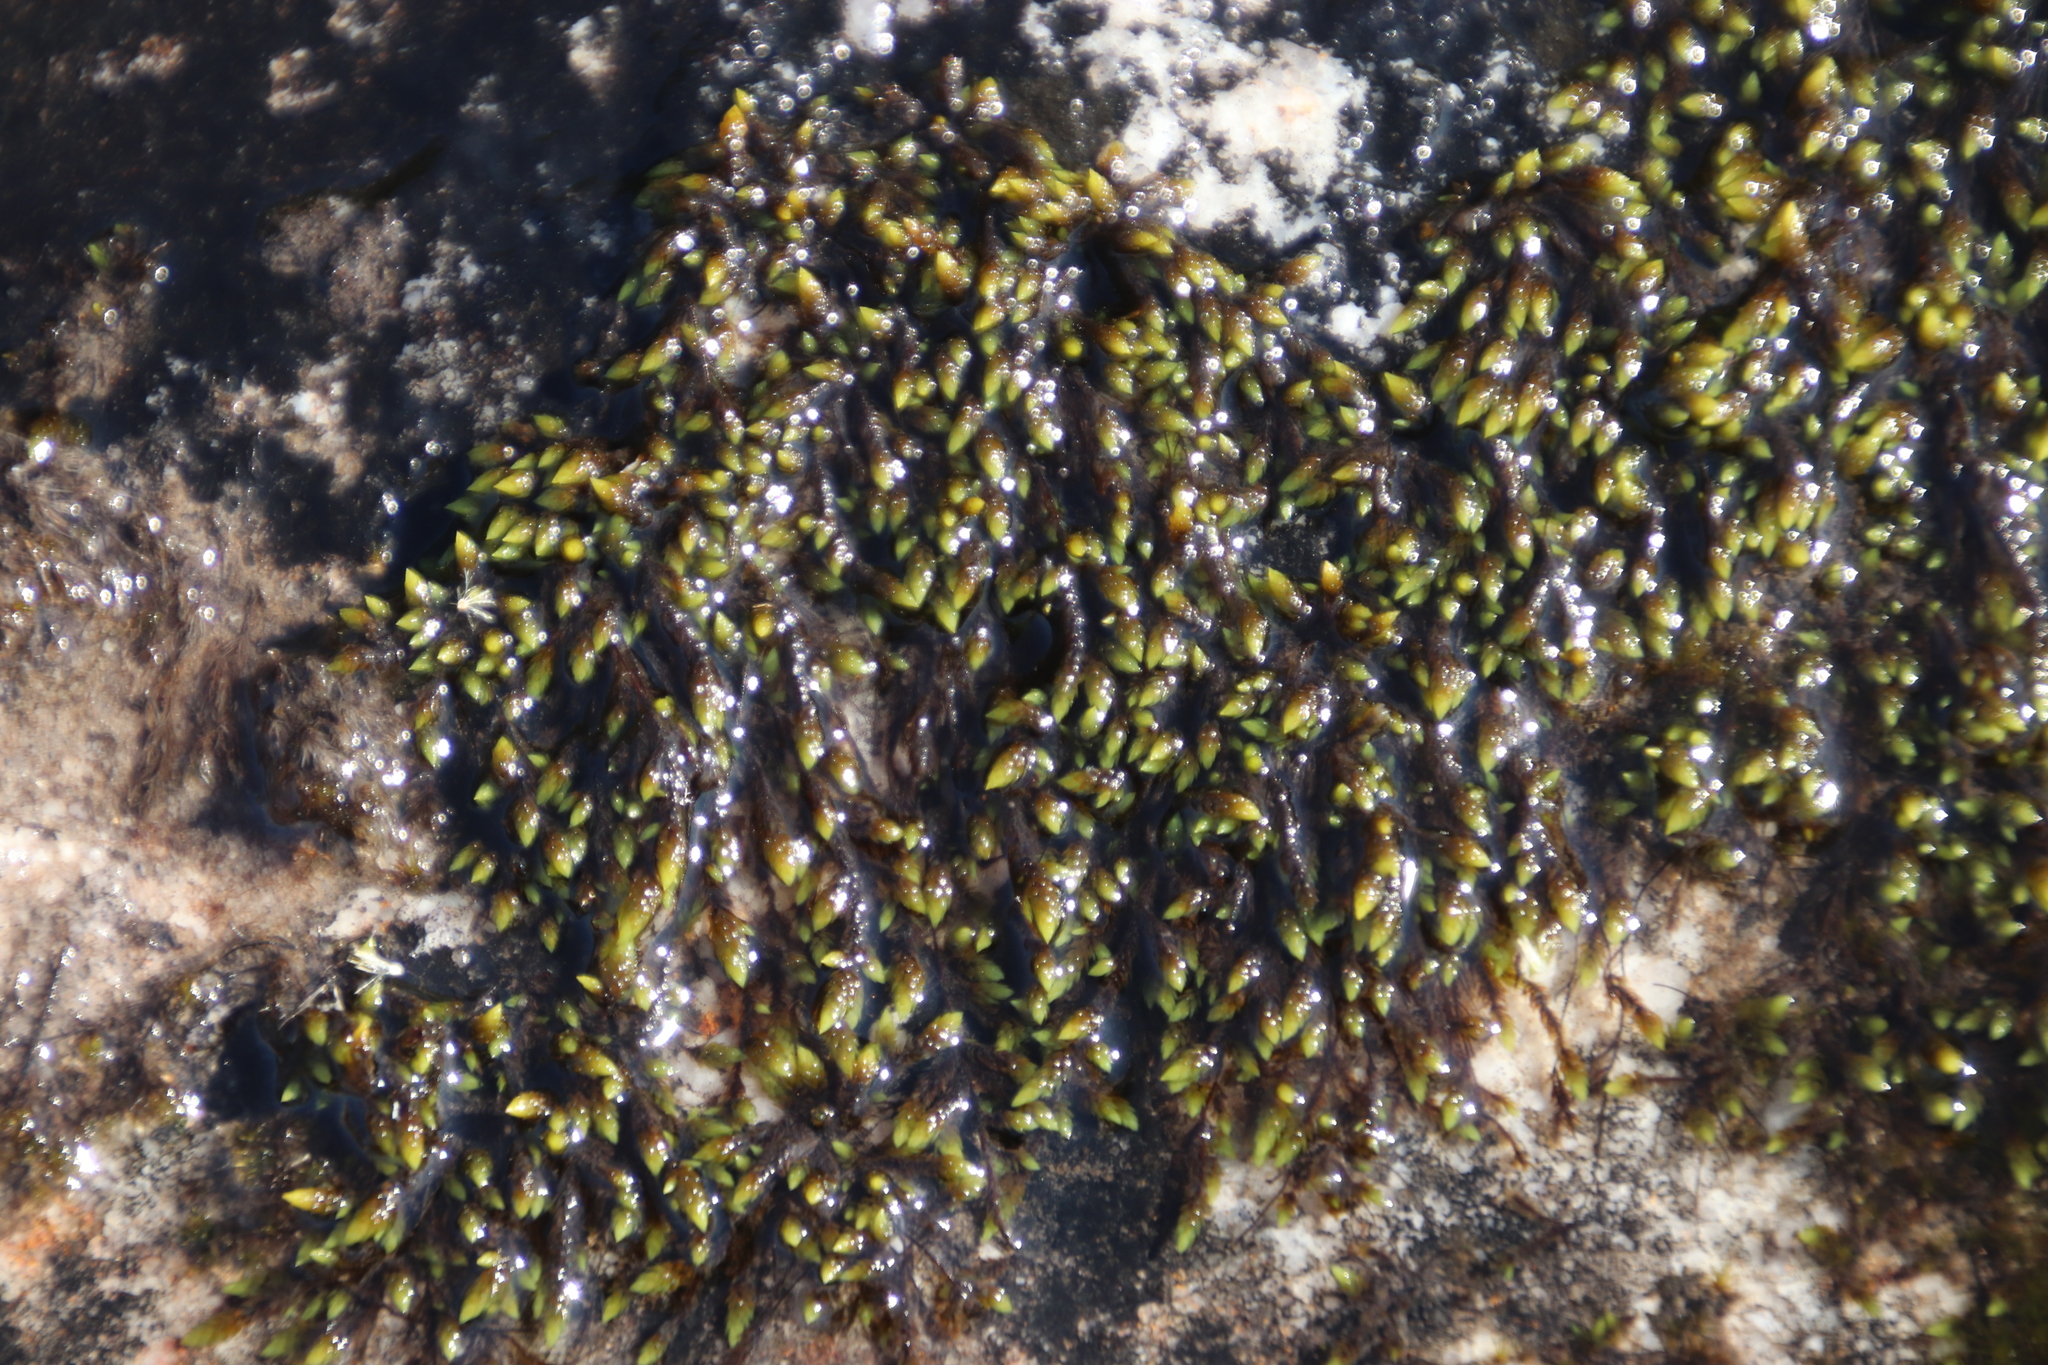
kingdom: Plantae
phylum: Bryophyta
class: Bryopsida
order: Hedwigiales
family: Hedwigiaceae
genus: Rhacocarpus
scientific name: Rhacocarpus purpurascens
